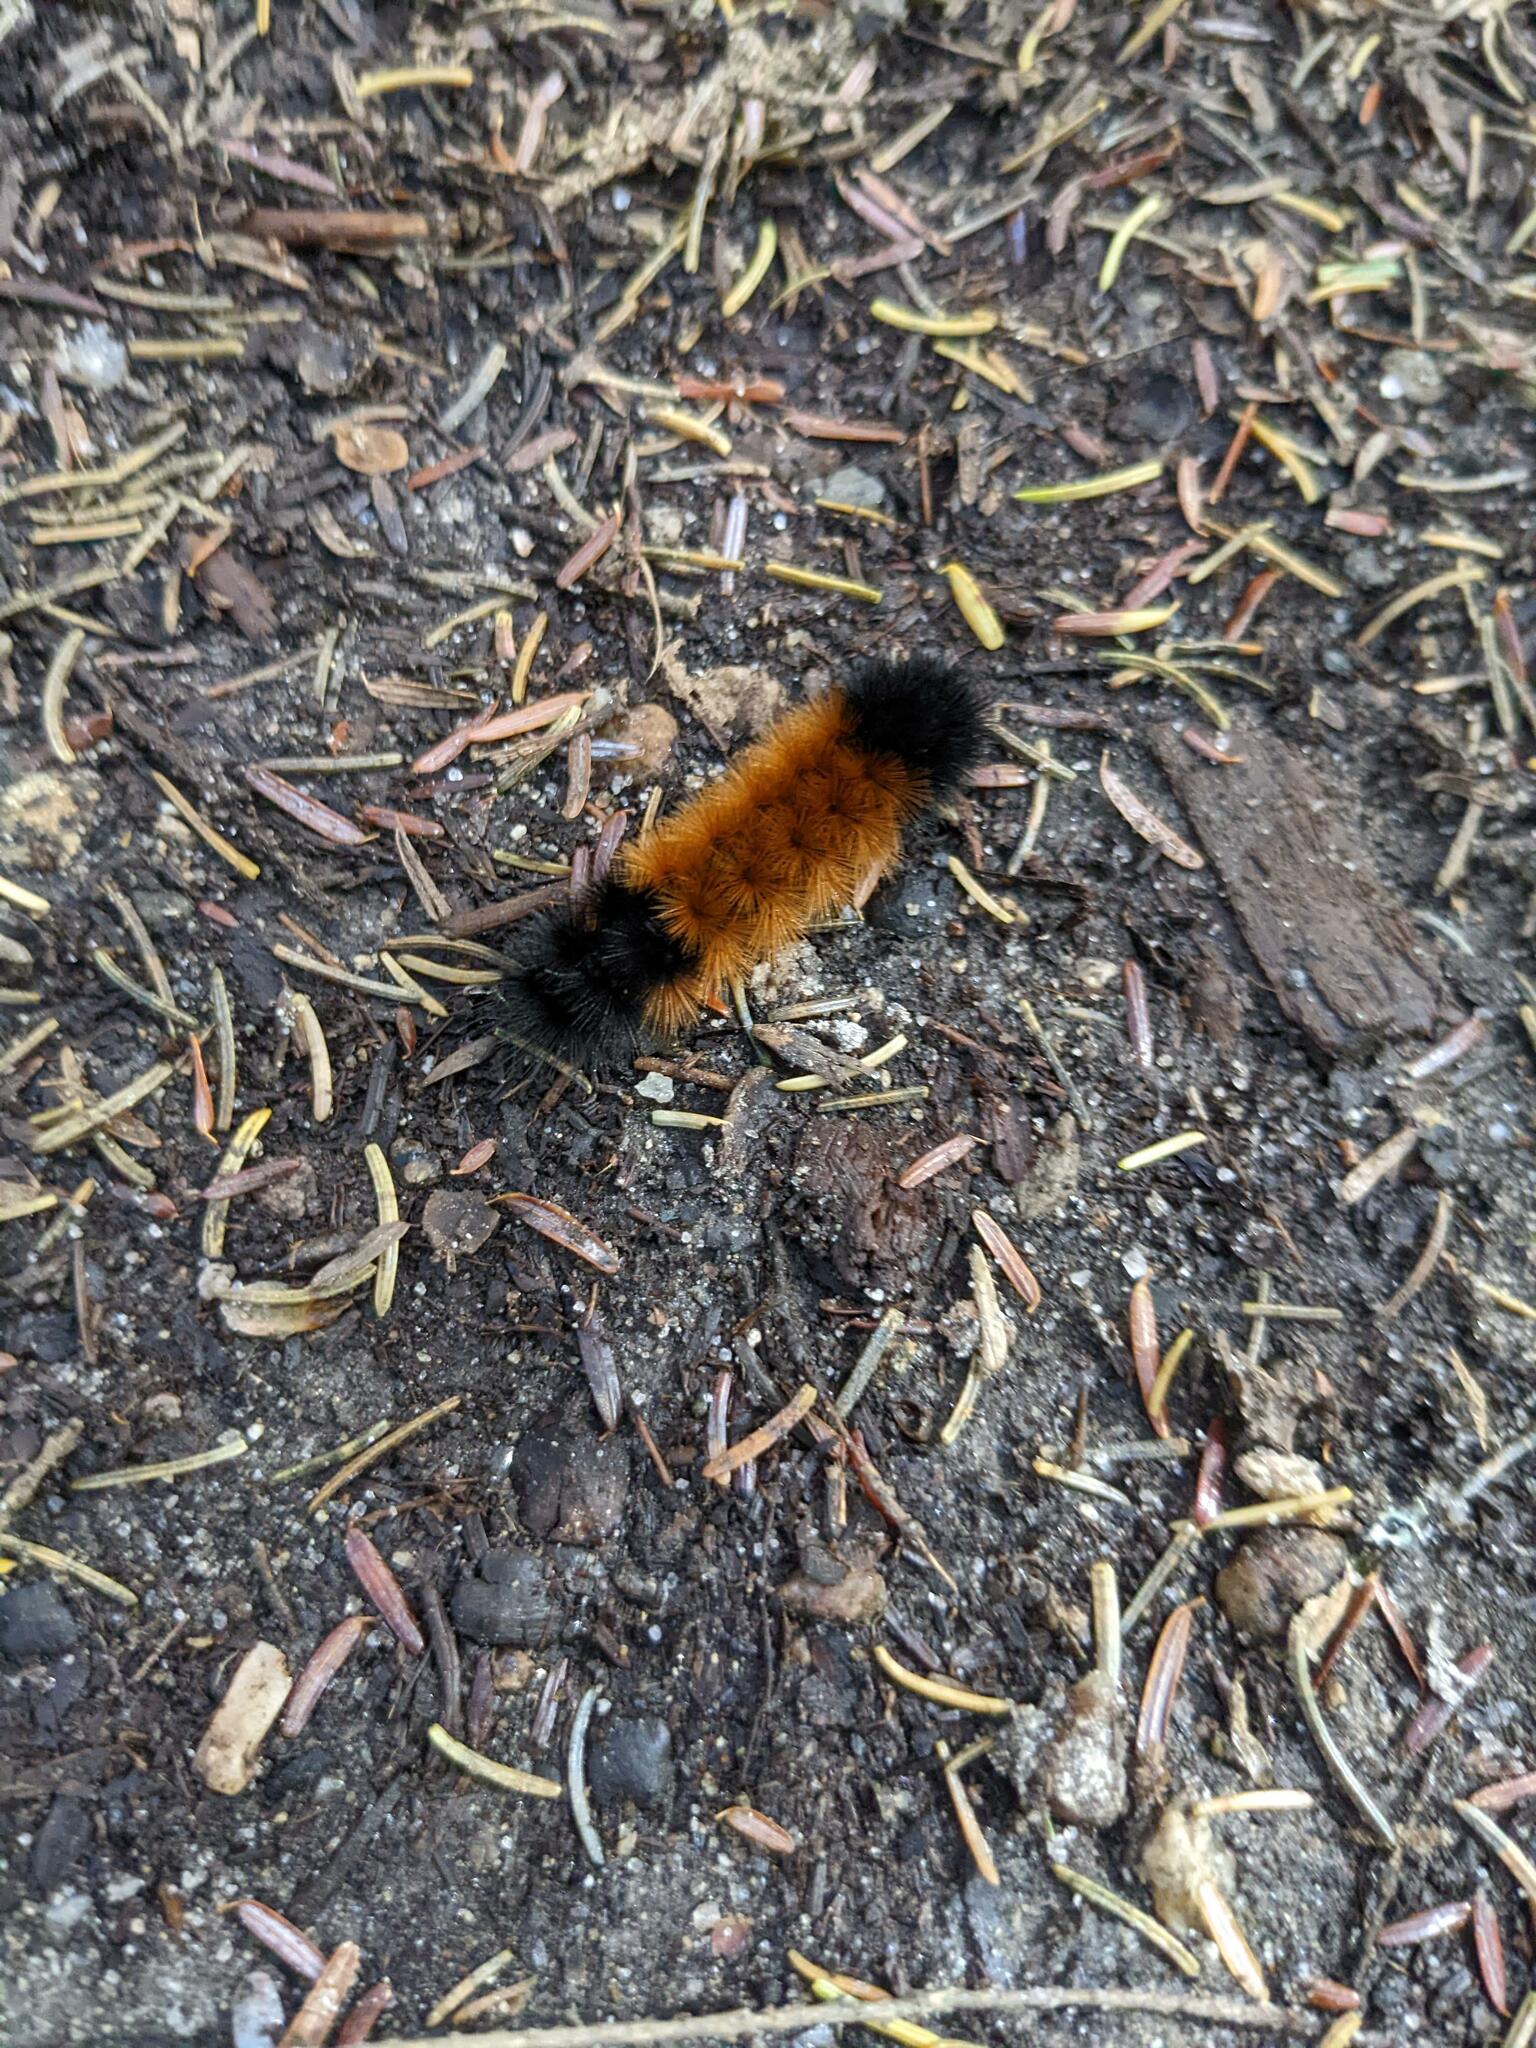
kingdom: Animalia
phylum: Arthropoda
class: Insecta
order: Lepidoptera
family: Erebidae
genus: Pyrrharctia
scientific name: Pyrrharctia isabella
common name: Isabella tiger moth
